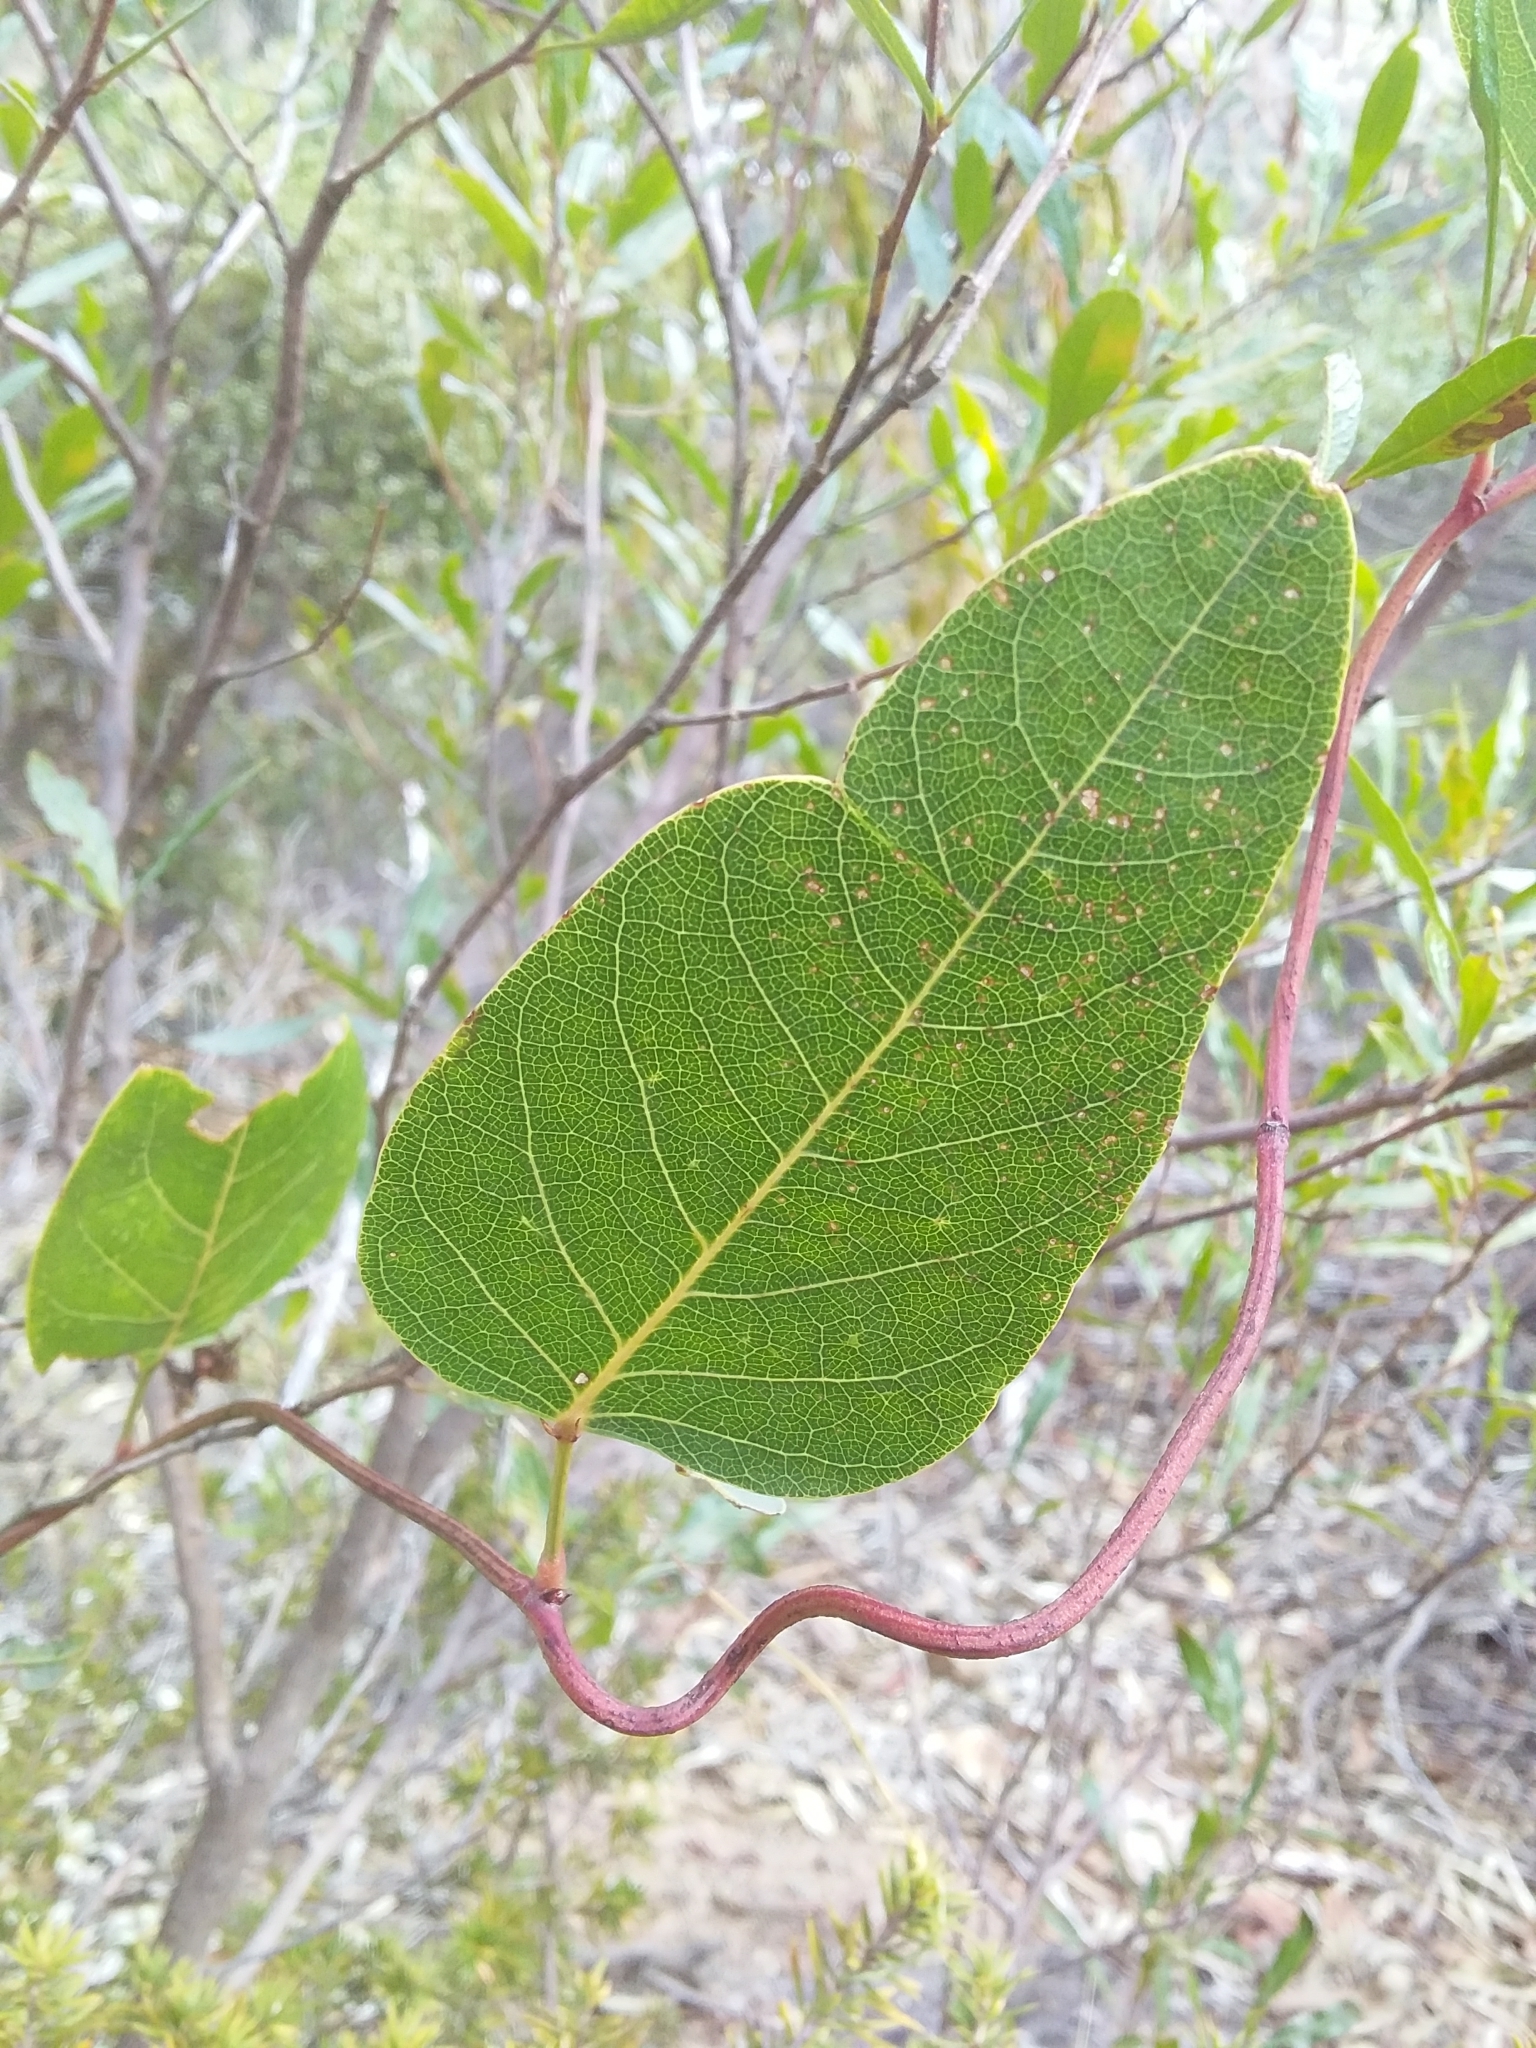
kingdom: Plantae
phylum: Tracheophyta
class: Magnoliopsida
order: Fabales
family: Fabaceae
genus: Hardenbergia
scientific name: Hardenbergia violacea
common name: Coral-pea
